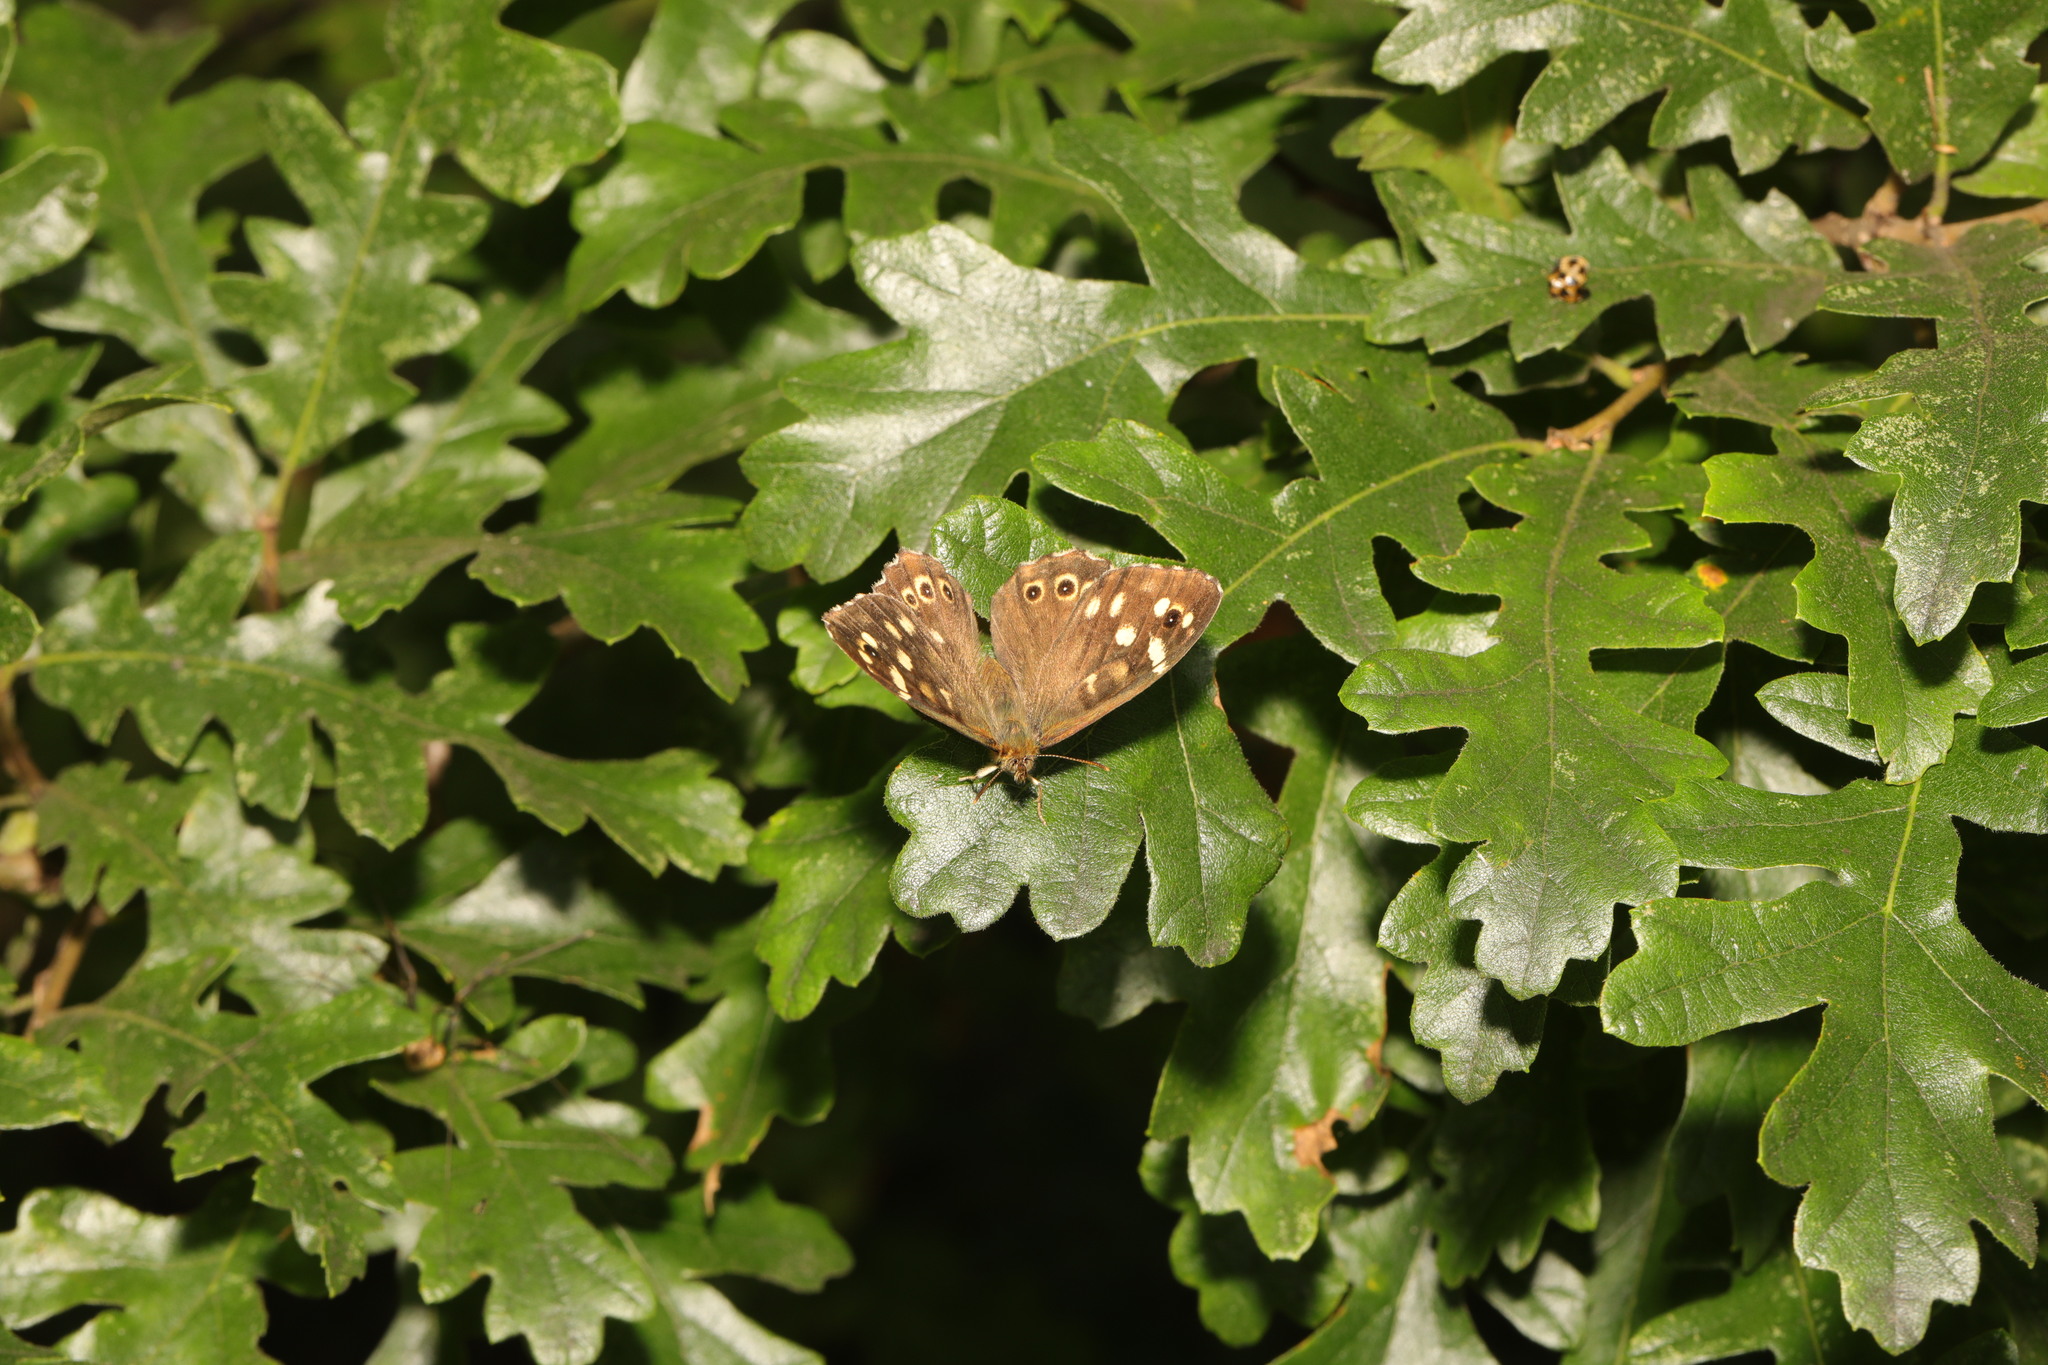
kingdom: Animalia
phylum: Arthropoda
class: Insecta
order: Lepidoptera
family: Nymphalidae
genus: Pararge
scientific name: Pararge aegeria
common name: Speckled wood
